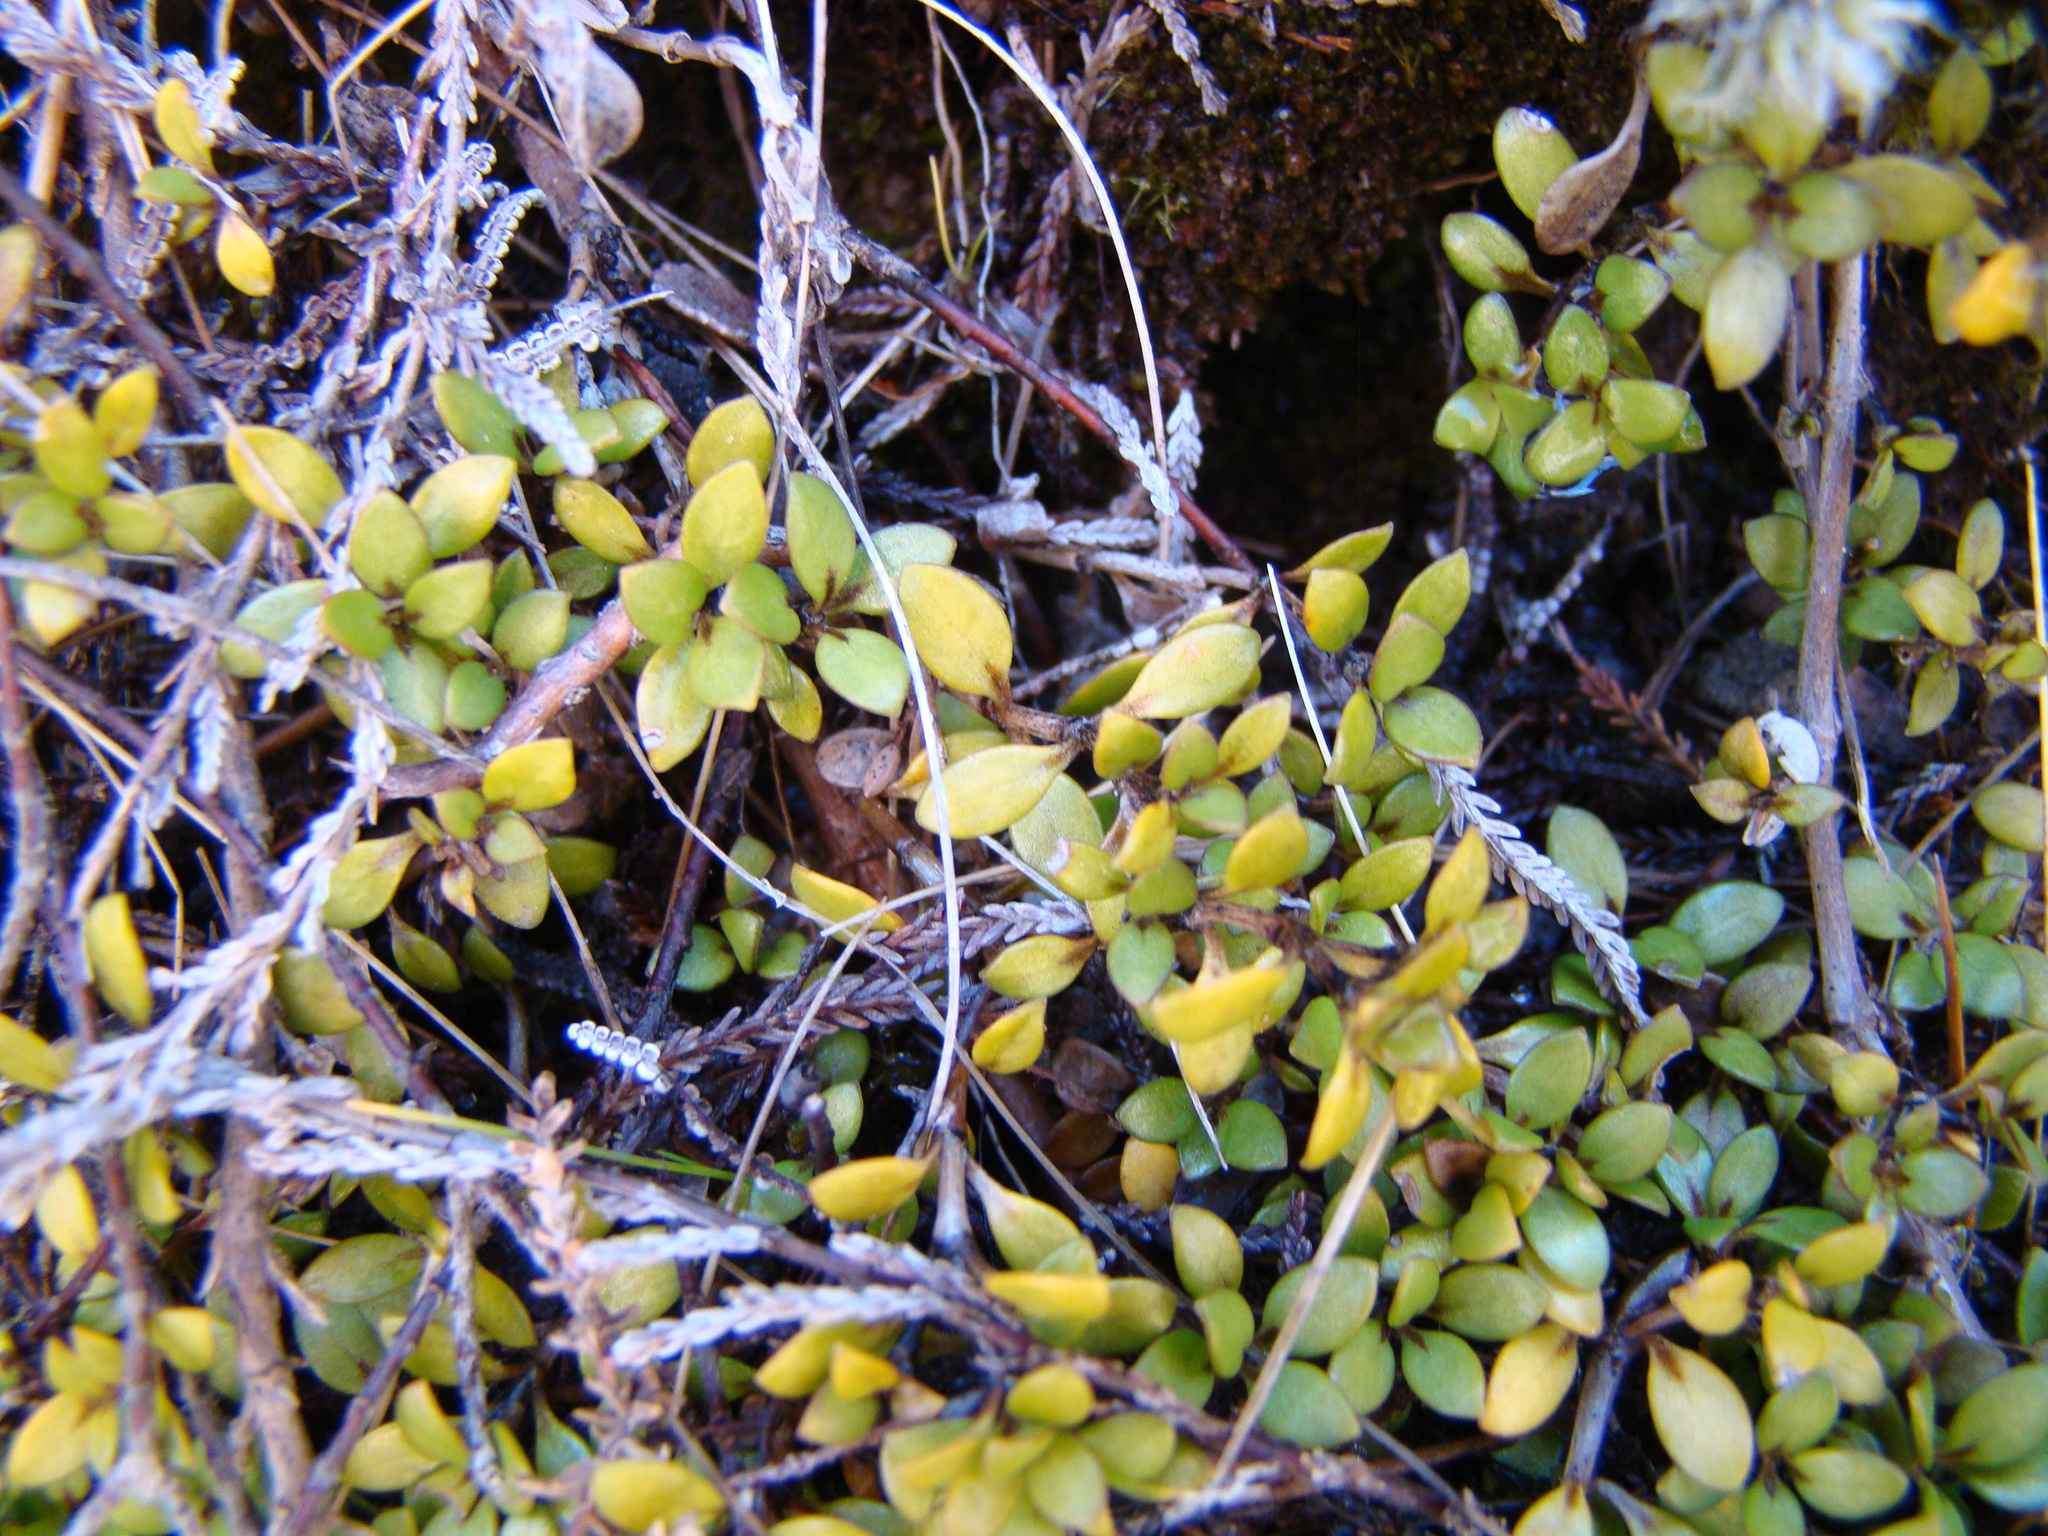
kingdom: Plantae
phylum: Tracheophyta
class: Magnoliopsida
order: Gentianales
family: Rubiaceae
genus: Coprosma
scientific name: Coprosma perpusilla
